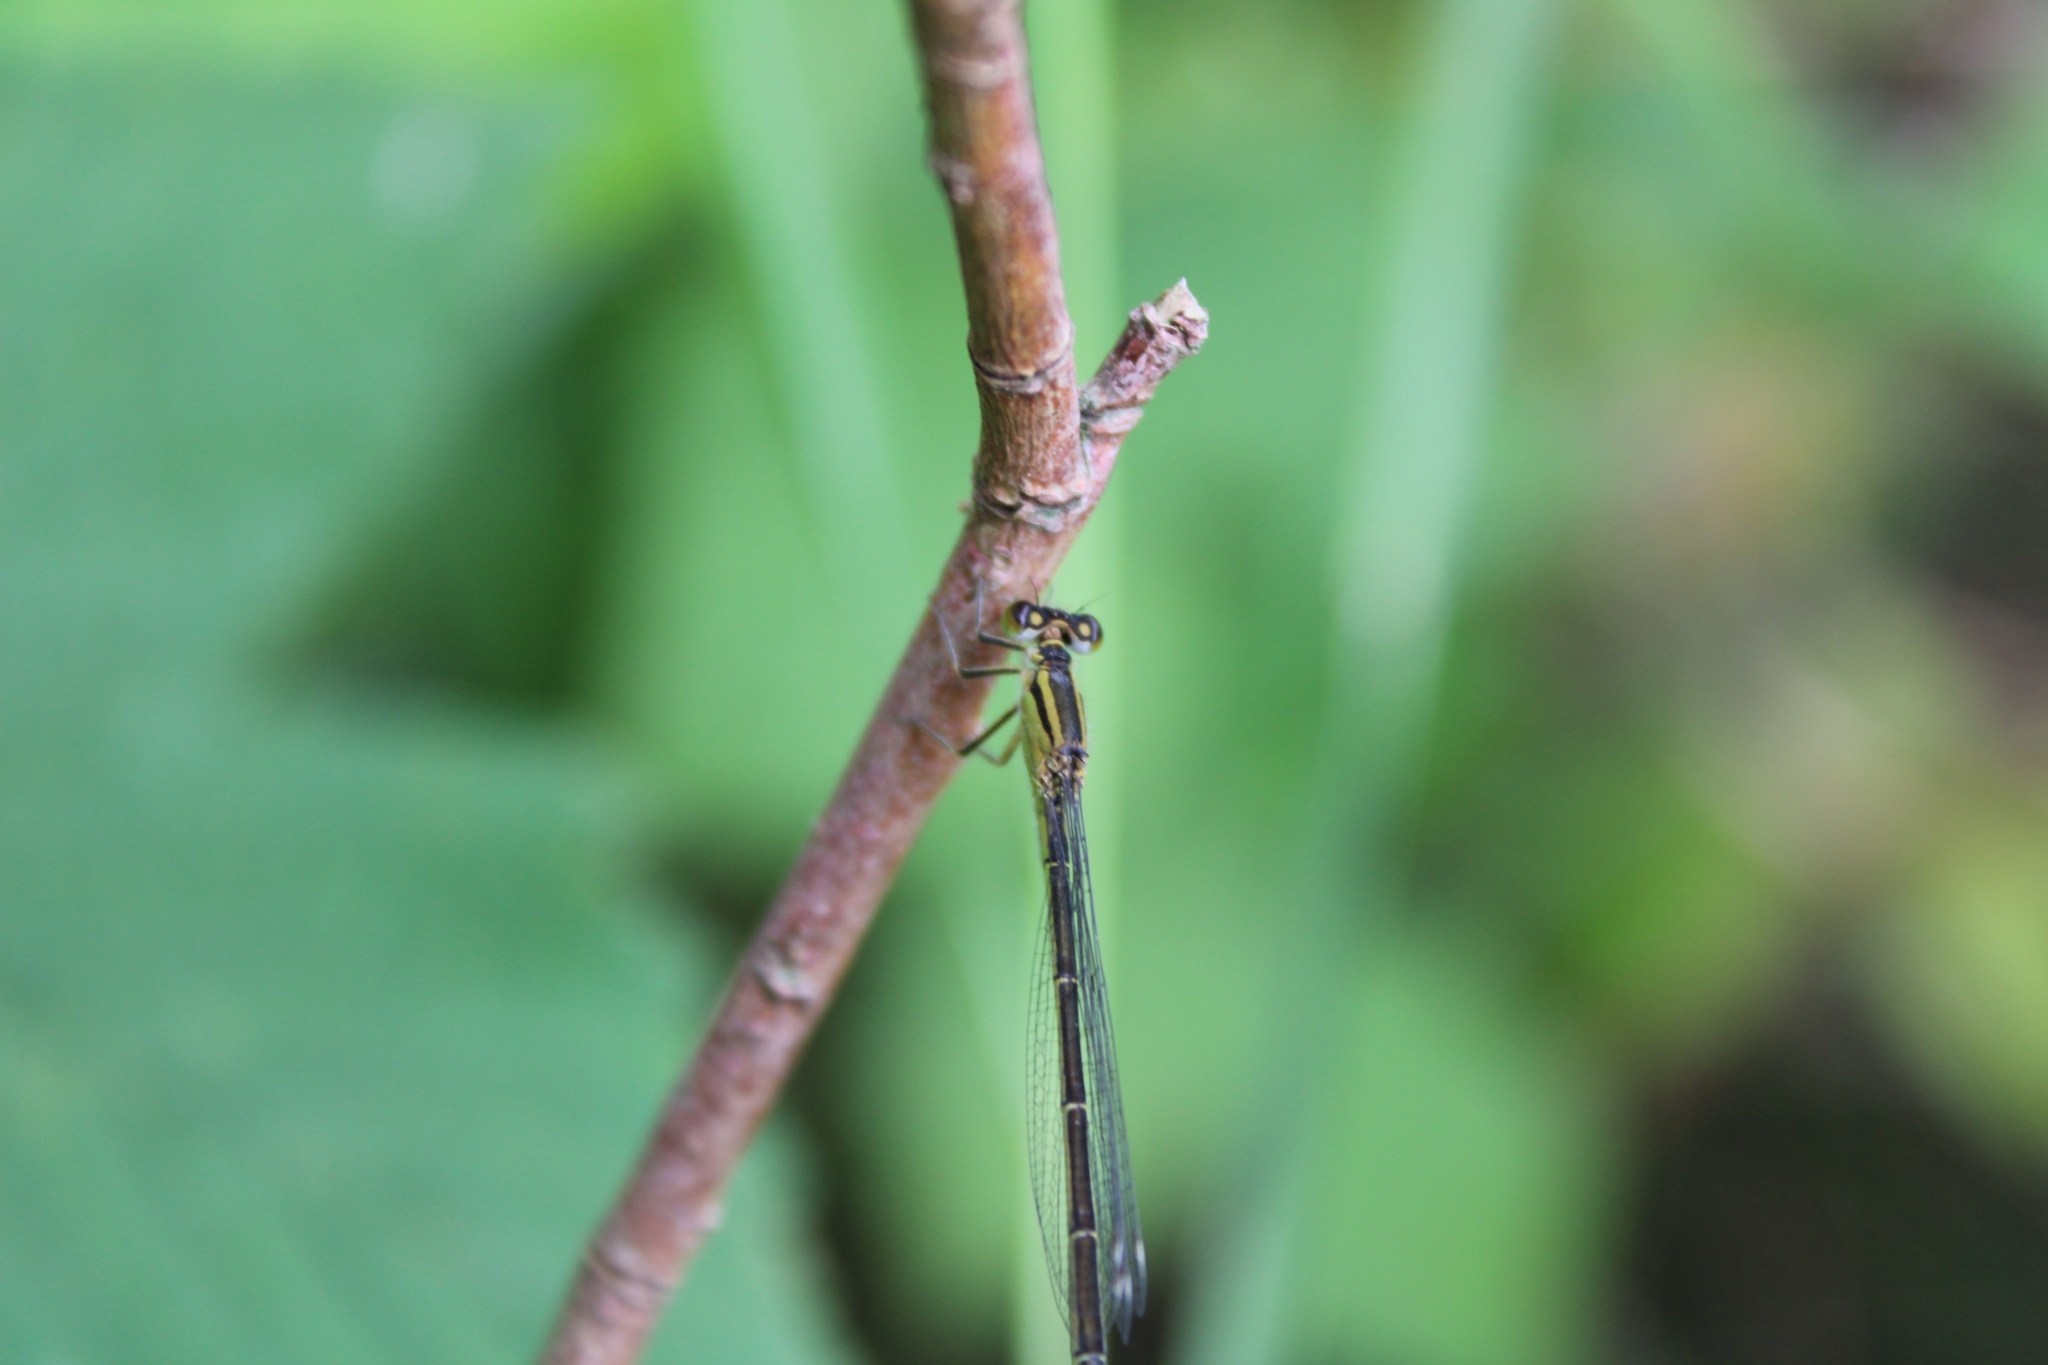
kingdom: Animalia
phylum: Arthropoda
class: Insecta
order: Odonata
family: Coenagrionidae
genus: Ischnura
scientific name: Ischnura elegans
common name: Blue-tailed damselfly
